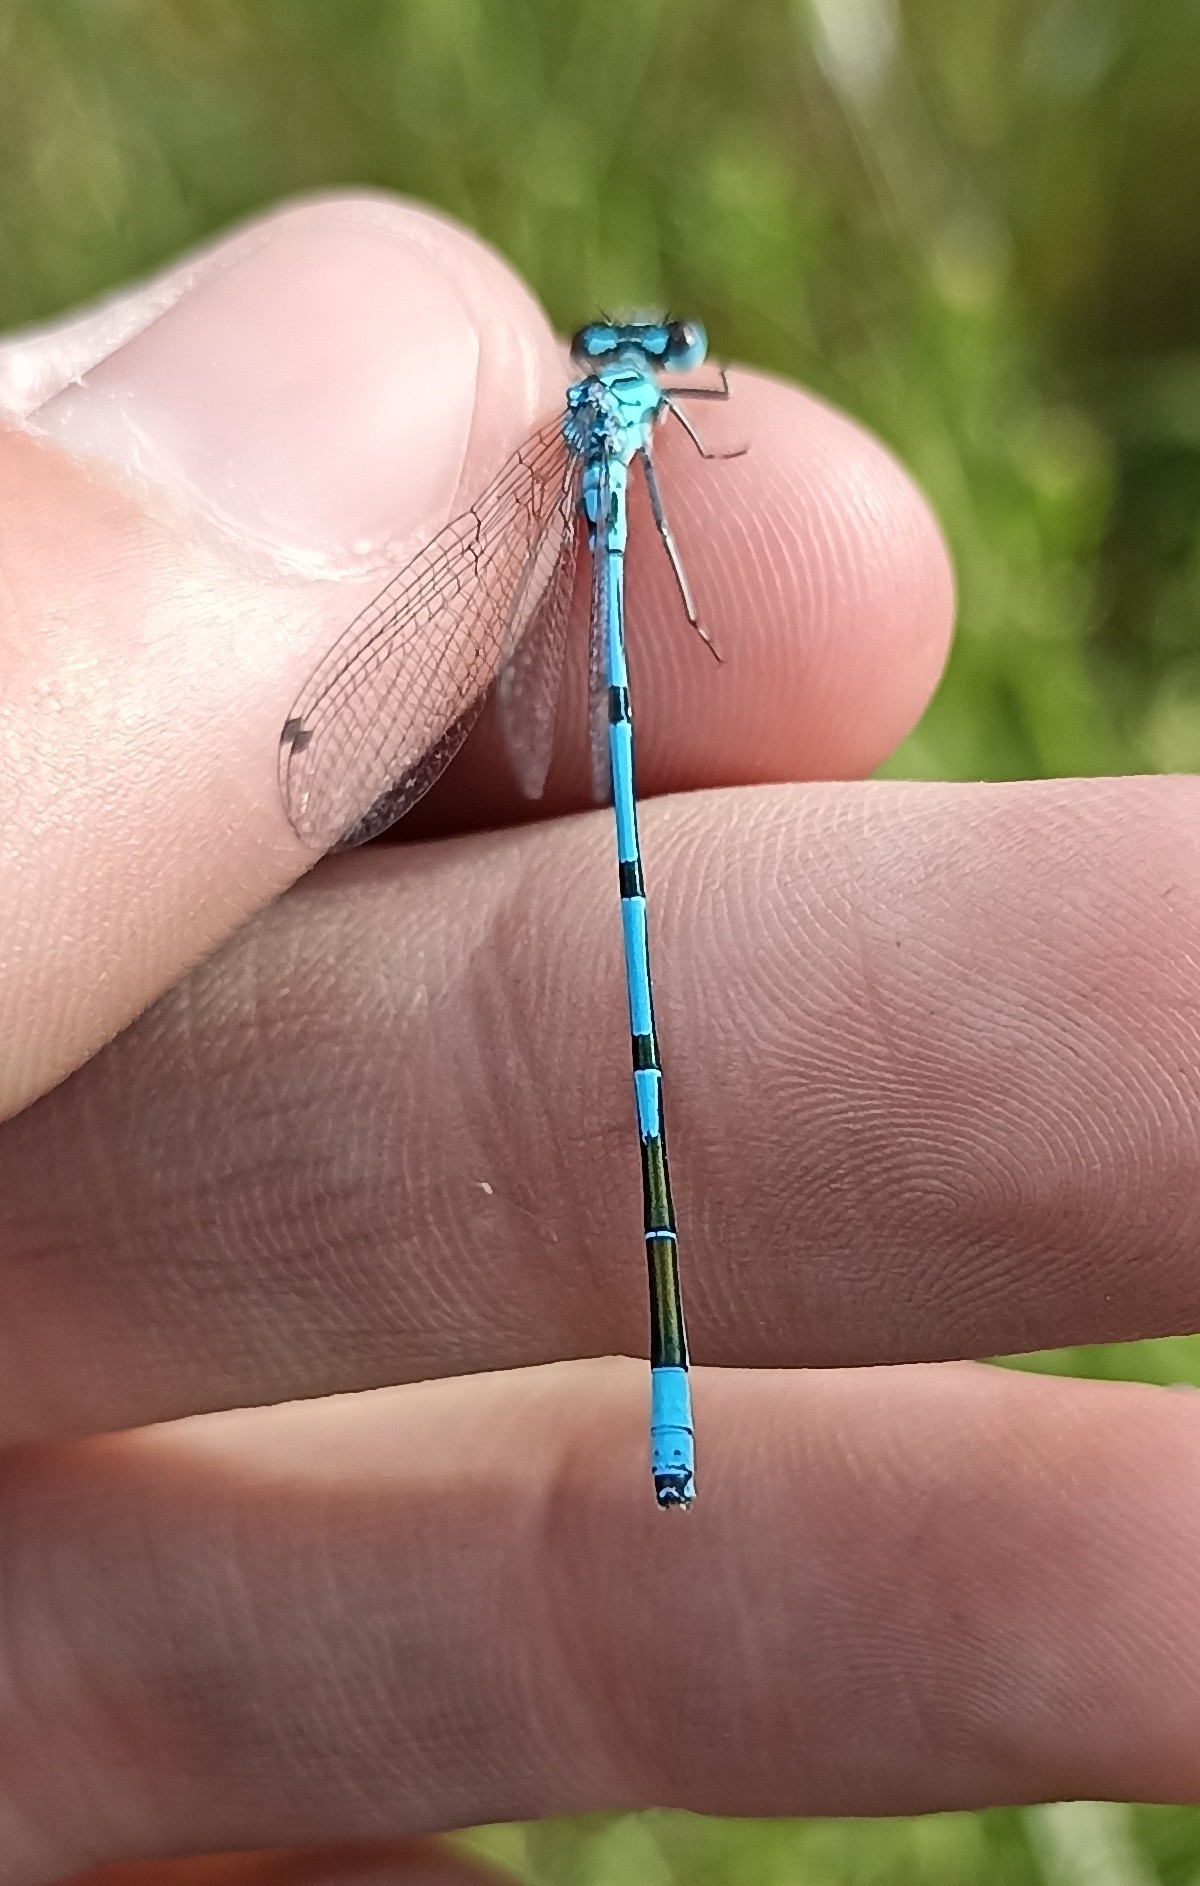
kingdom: Animalia
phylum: Arthropoda
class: Insecta
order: Odonata
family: Coenagrionidae
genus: Coenagrion
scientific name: Coenagrion puella
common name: Azure damselfly
